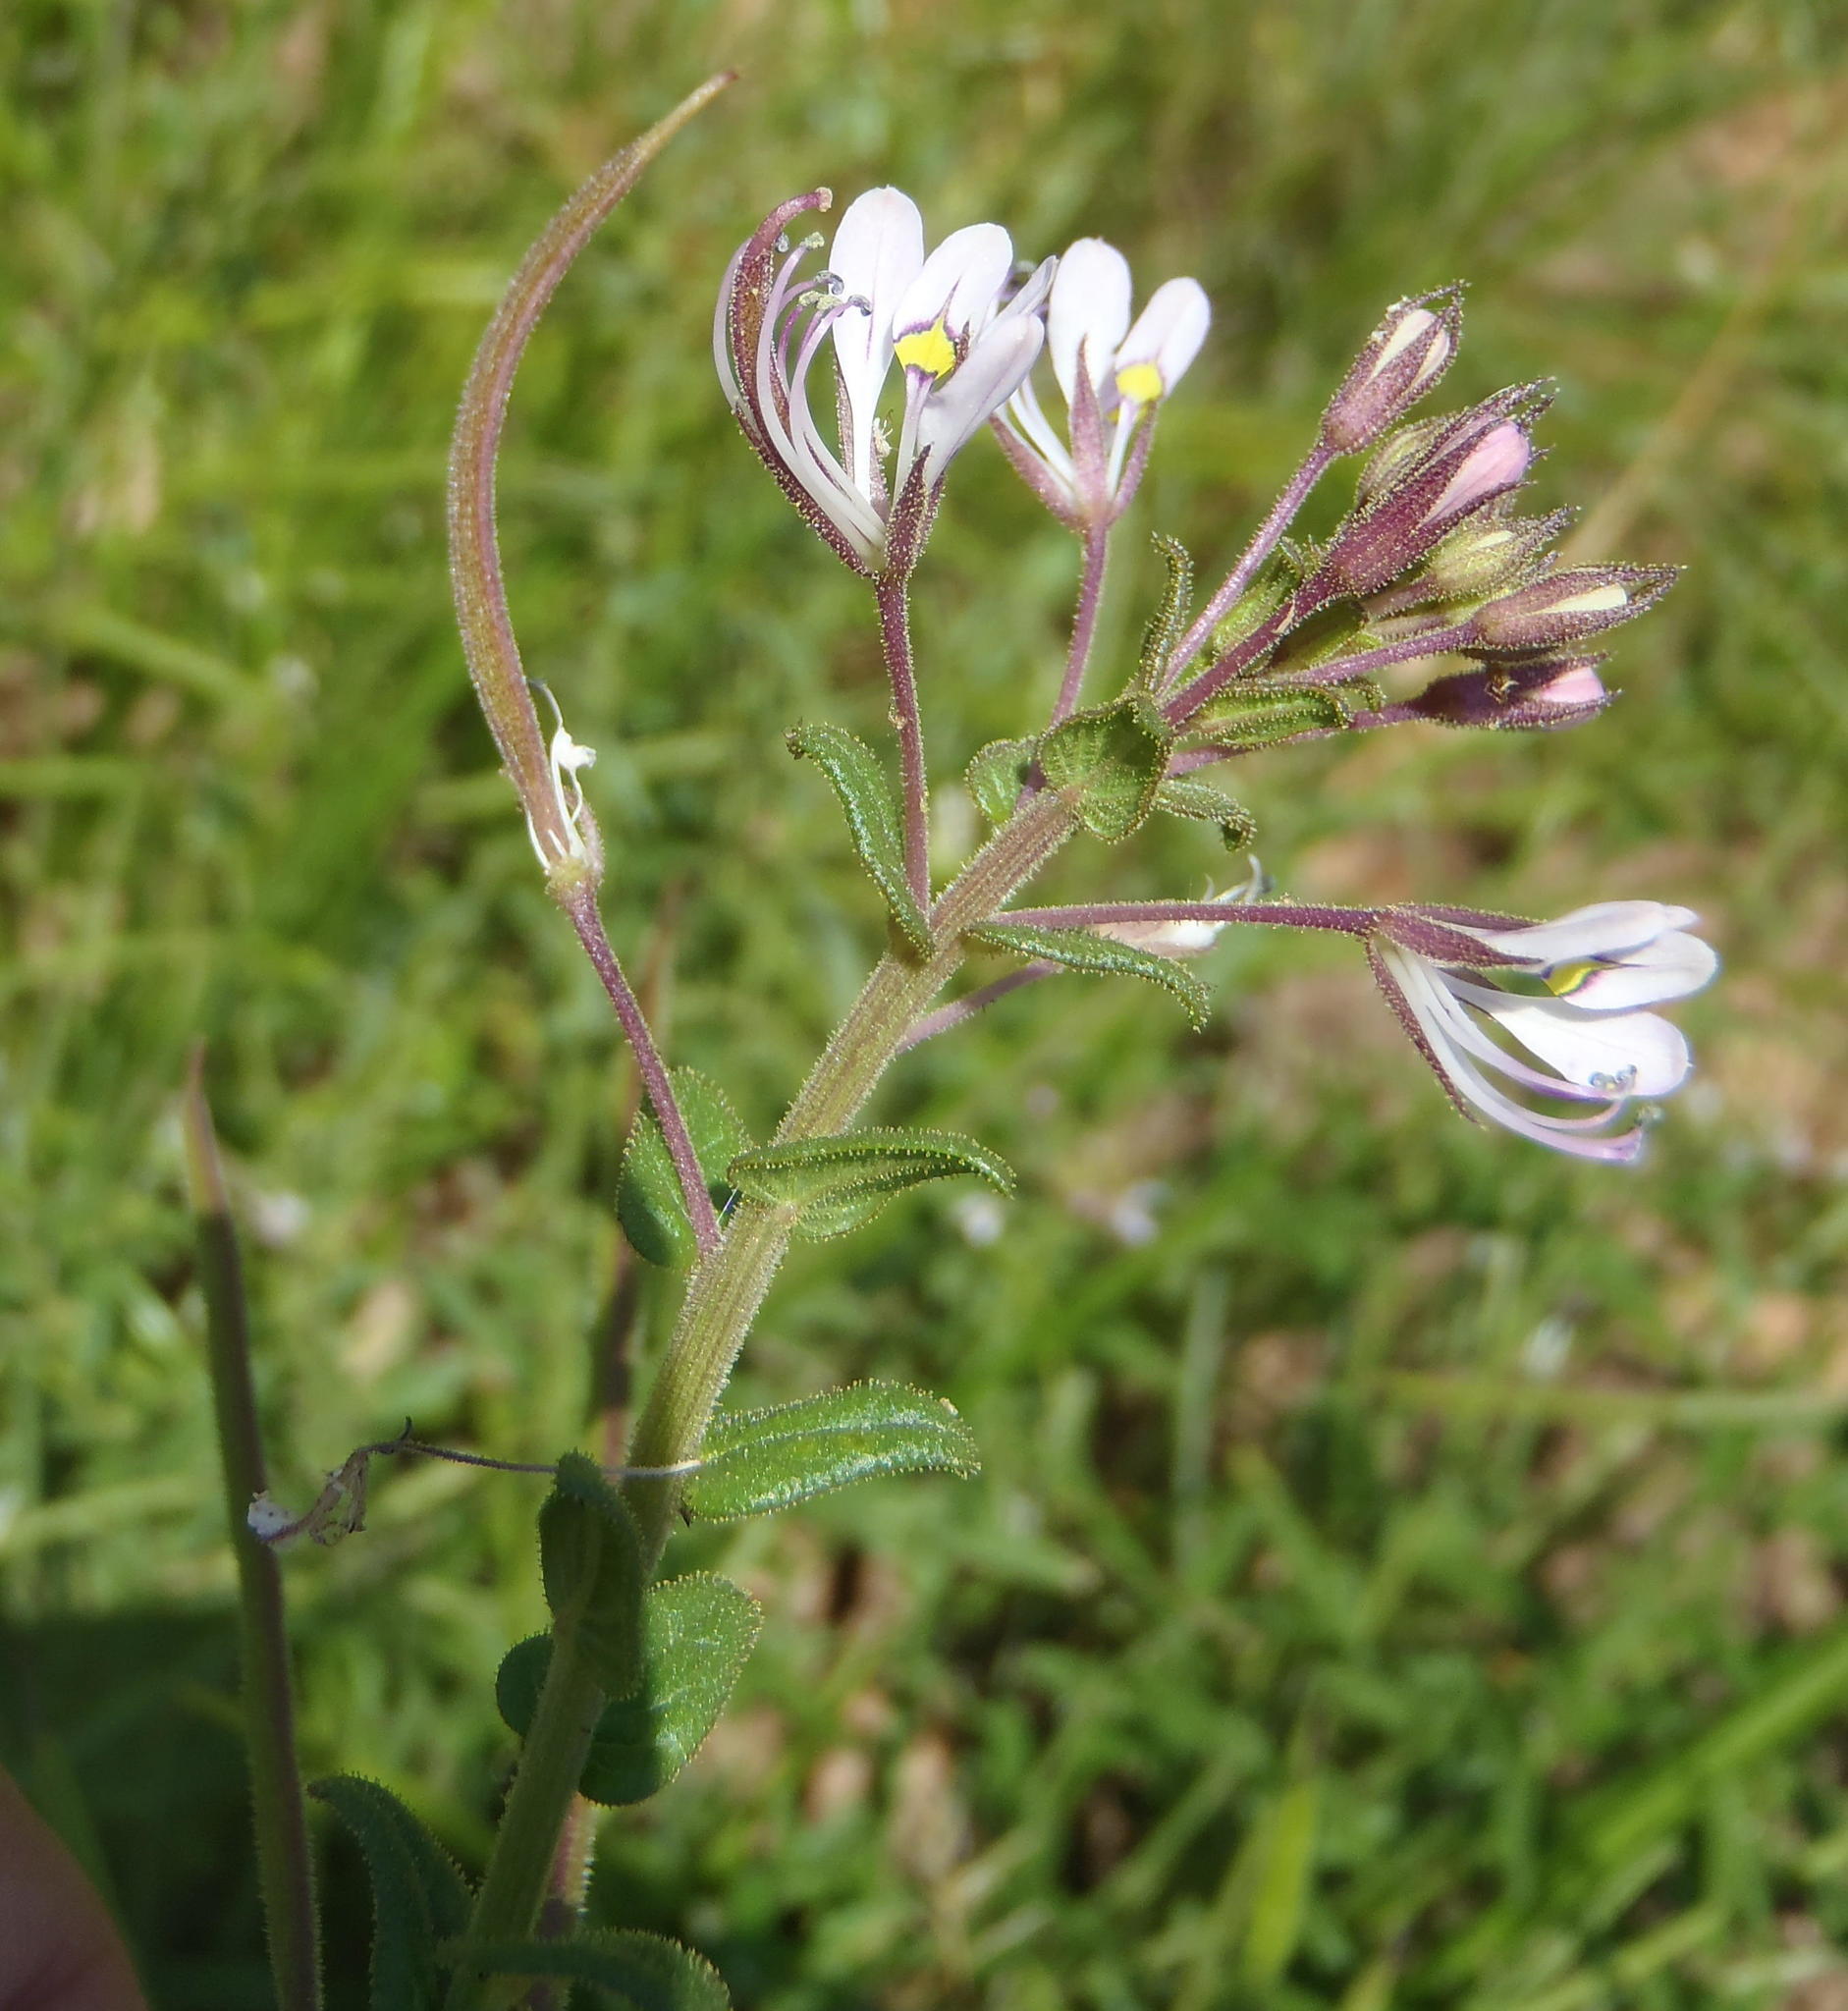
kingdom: Plantae
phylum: Tracheophyta
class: Magnoliopsida
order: Brassicales
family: Cleomaceae
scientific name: Cleomaceae
